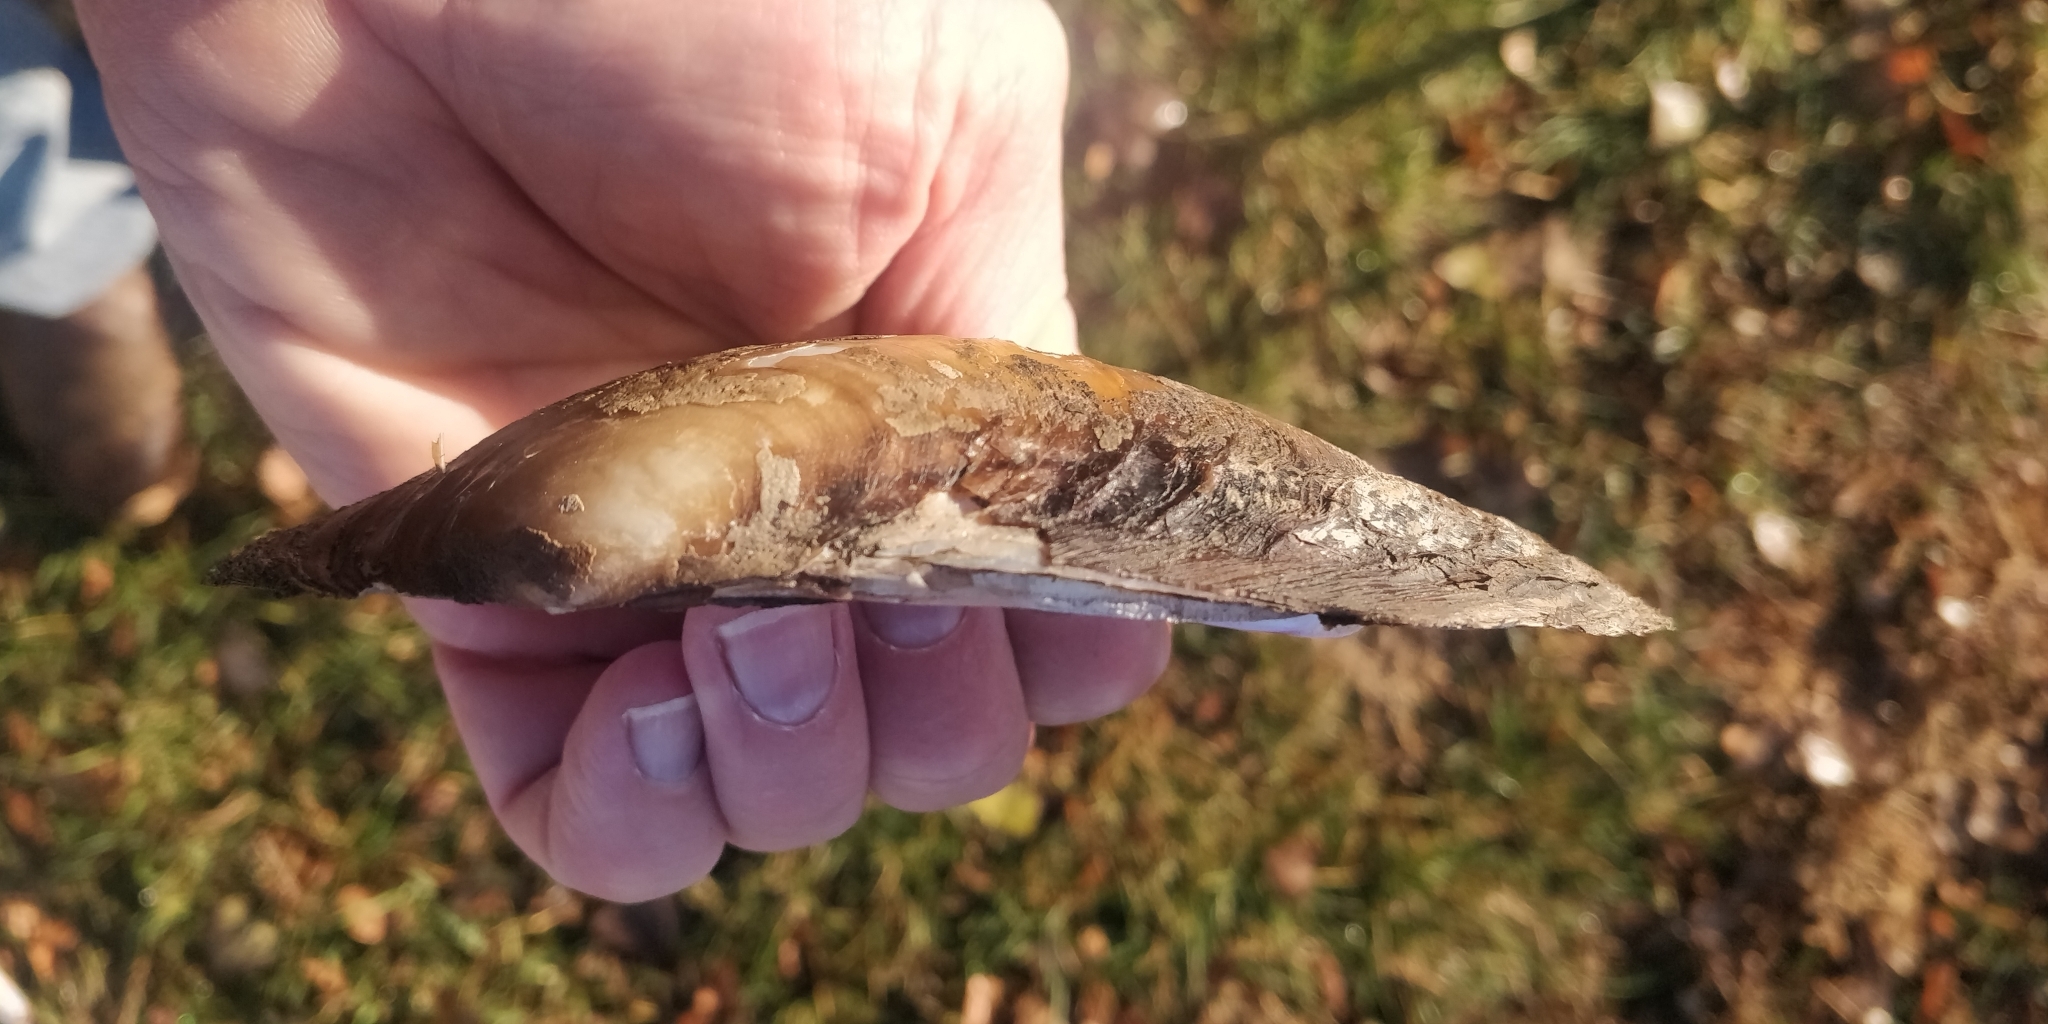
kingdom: Animalia
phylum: Mollusca
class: Bivalvia
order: Unionida
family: Unionidae
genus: Potamilus
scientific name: Potamilus fragilis
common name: Fragile papershell
